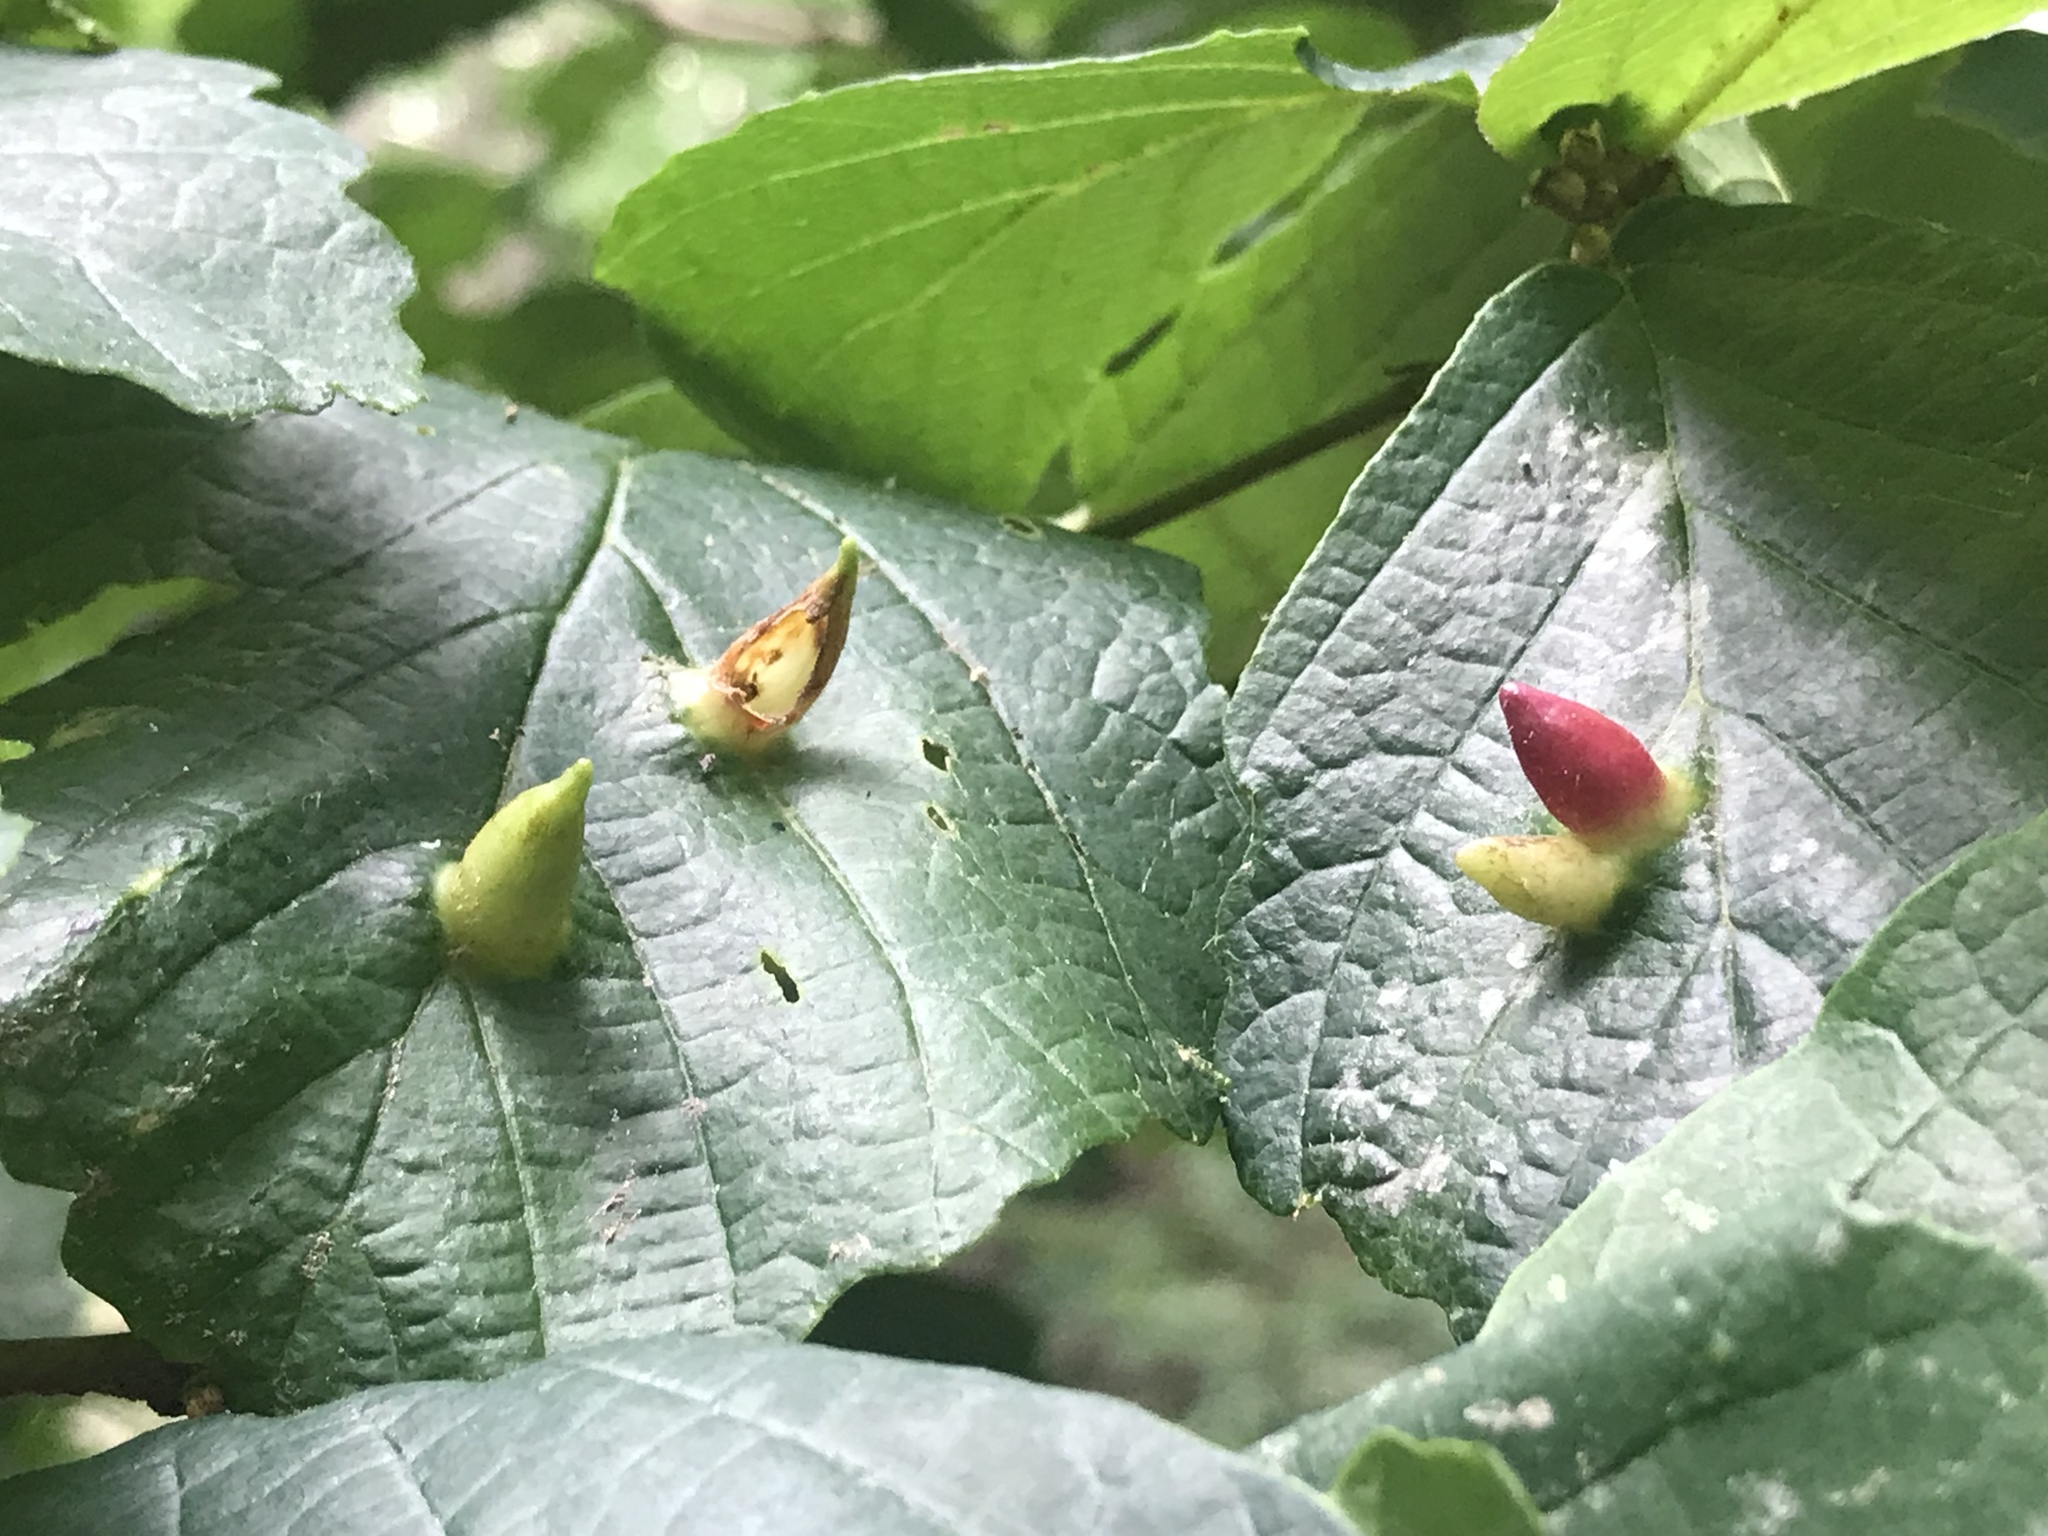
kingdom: Animalia
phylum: Arthropoda
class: Insecta
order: Hemiptera
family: Aphididae
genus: Hormaphis
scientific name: Hormaphis hamamelidis
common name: Witch-hazel cone gall aphid
